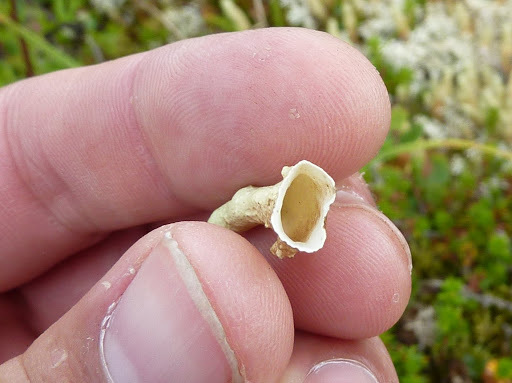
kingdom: Fungi
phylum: Ascomycota
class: Lecanoromycetes
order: Lecanorales
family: Parmeliaceae
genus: Dactylina
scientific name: Dactylina arctica
